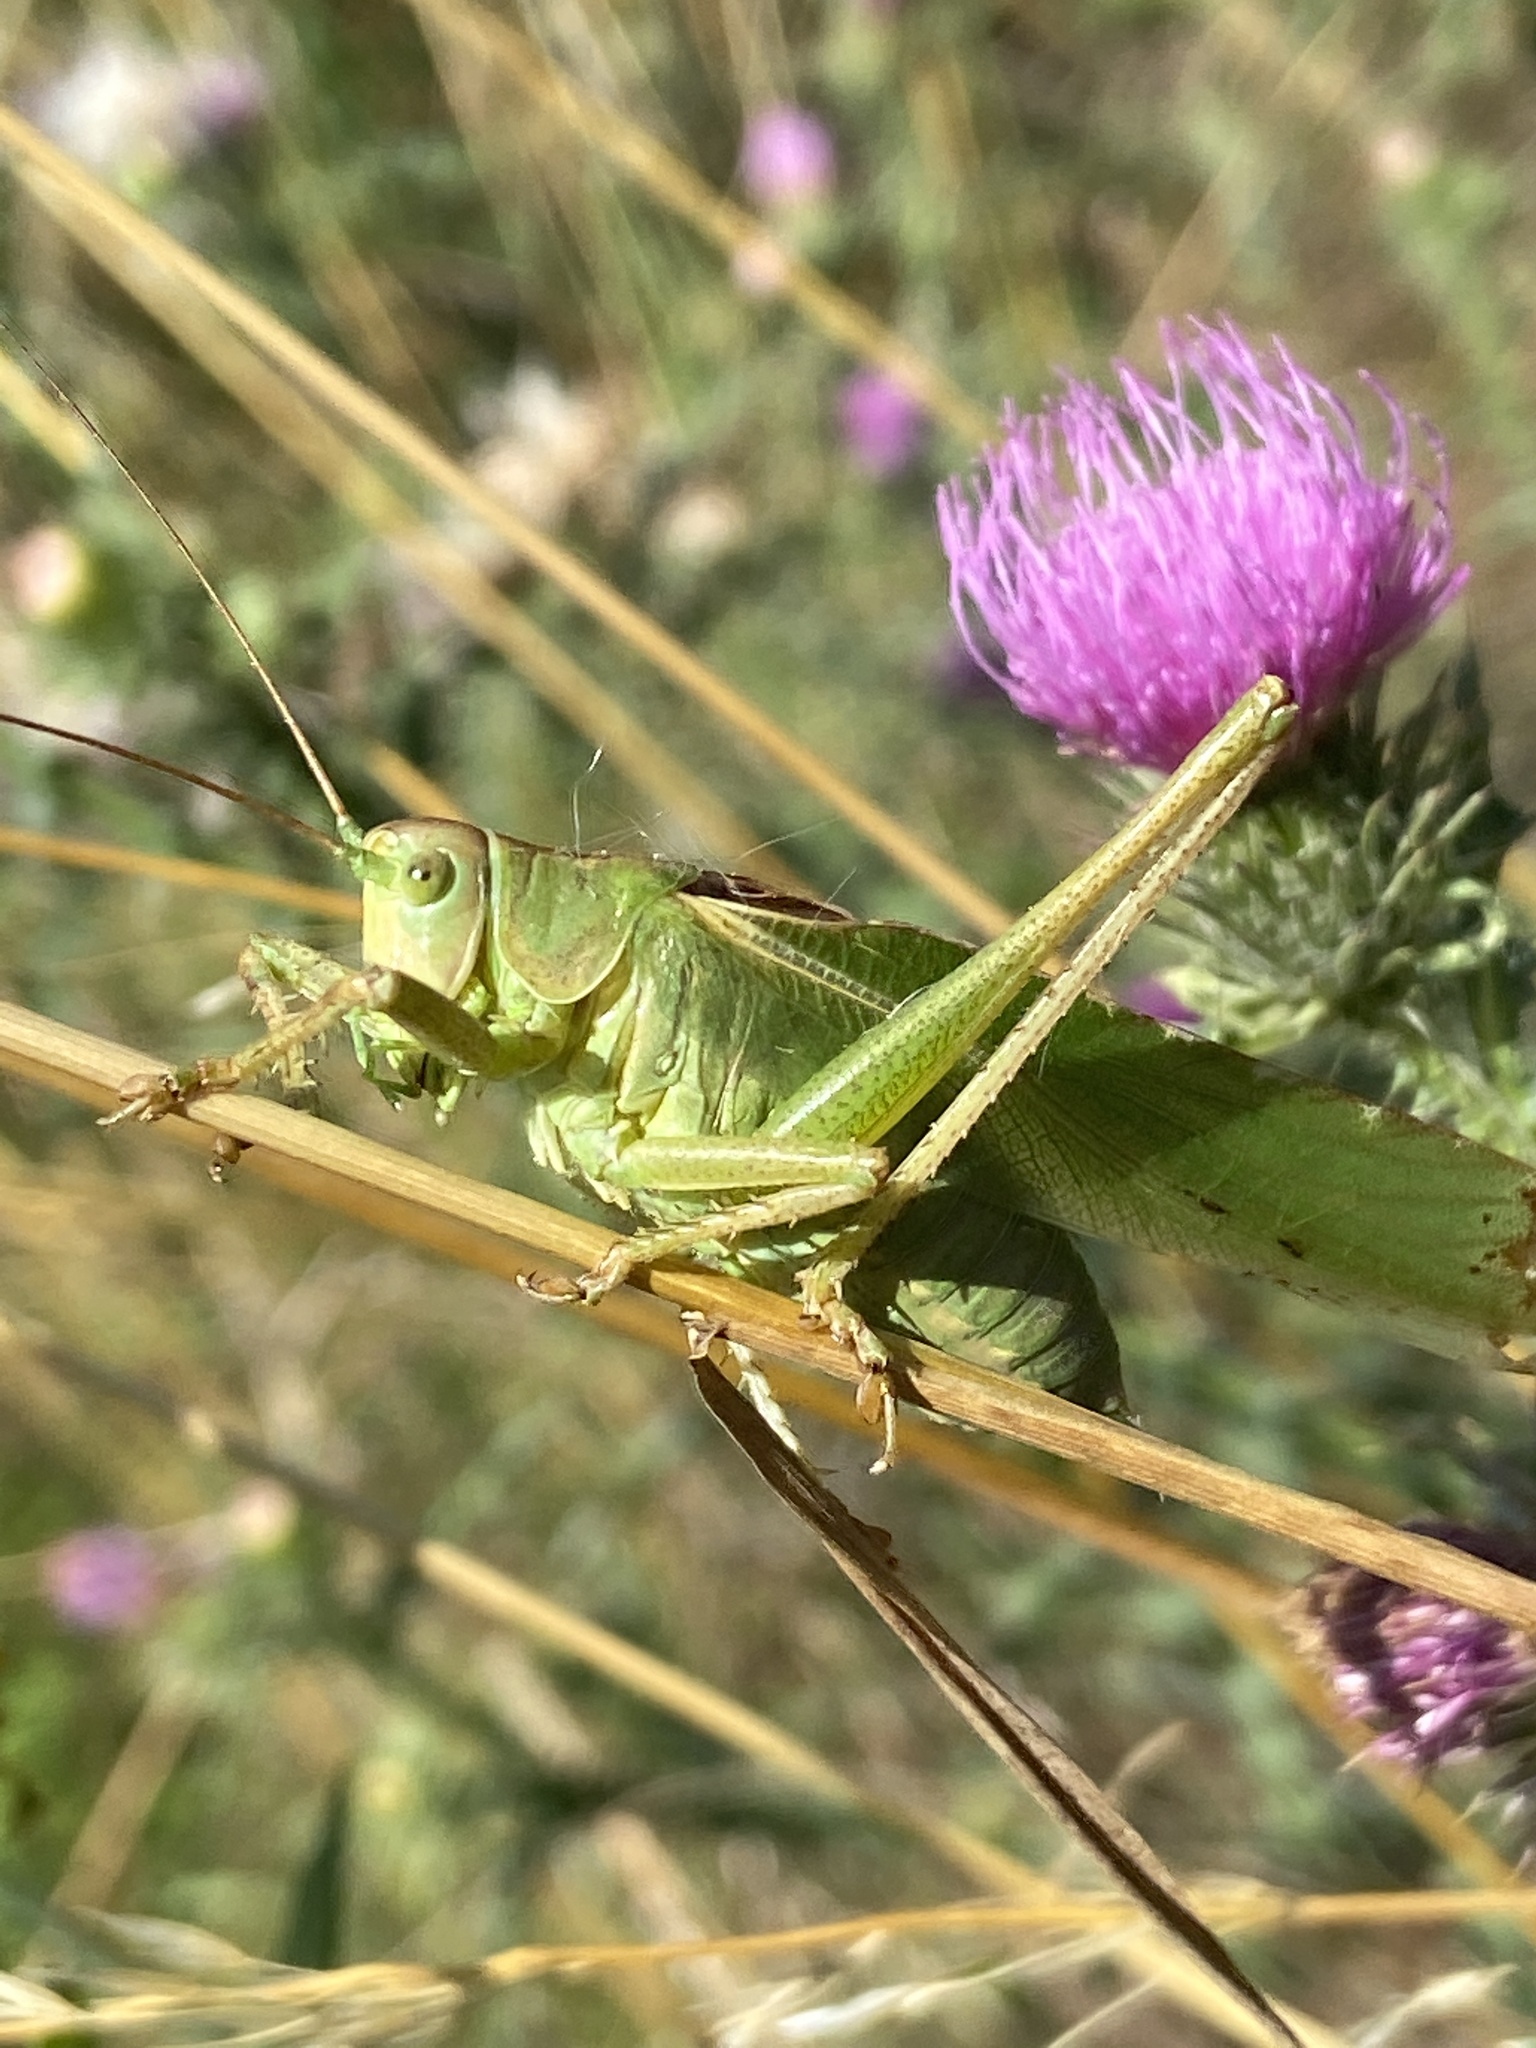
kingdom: Animalia
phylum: Arthropoda
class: Insecta
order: Orthoptera
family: Tettigoniidae
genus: Tettigonia
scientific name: Tettigonia viridissima
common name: Great green bush-cricket
